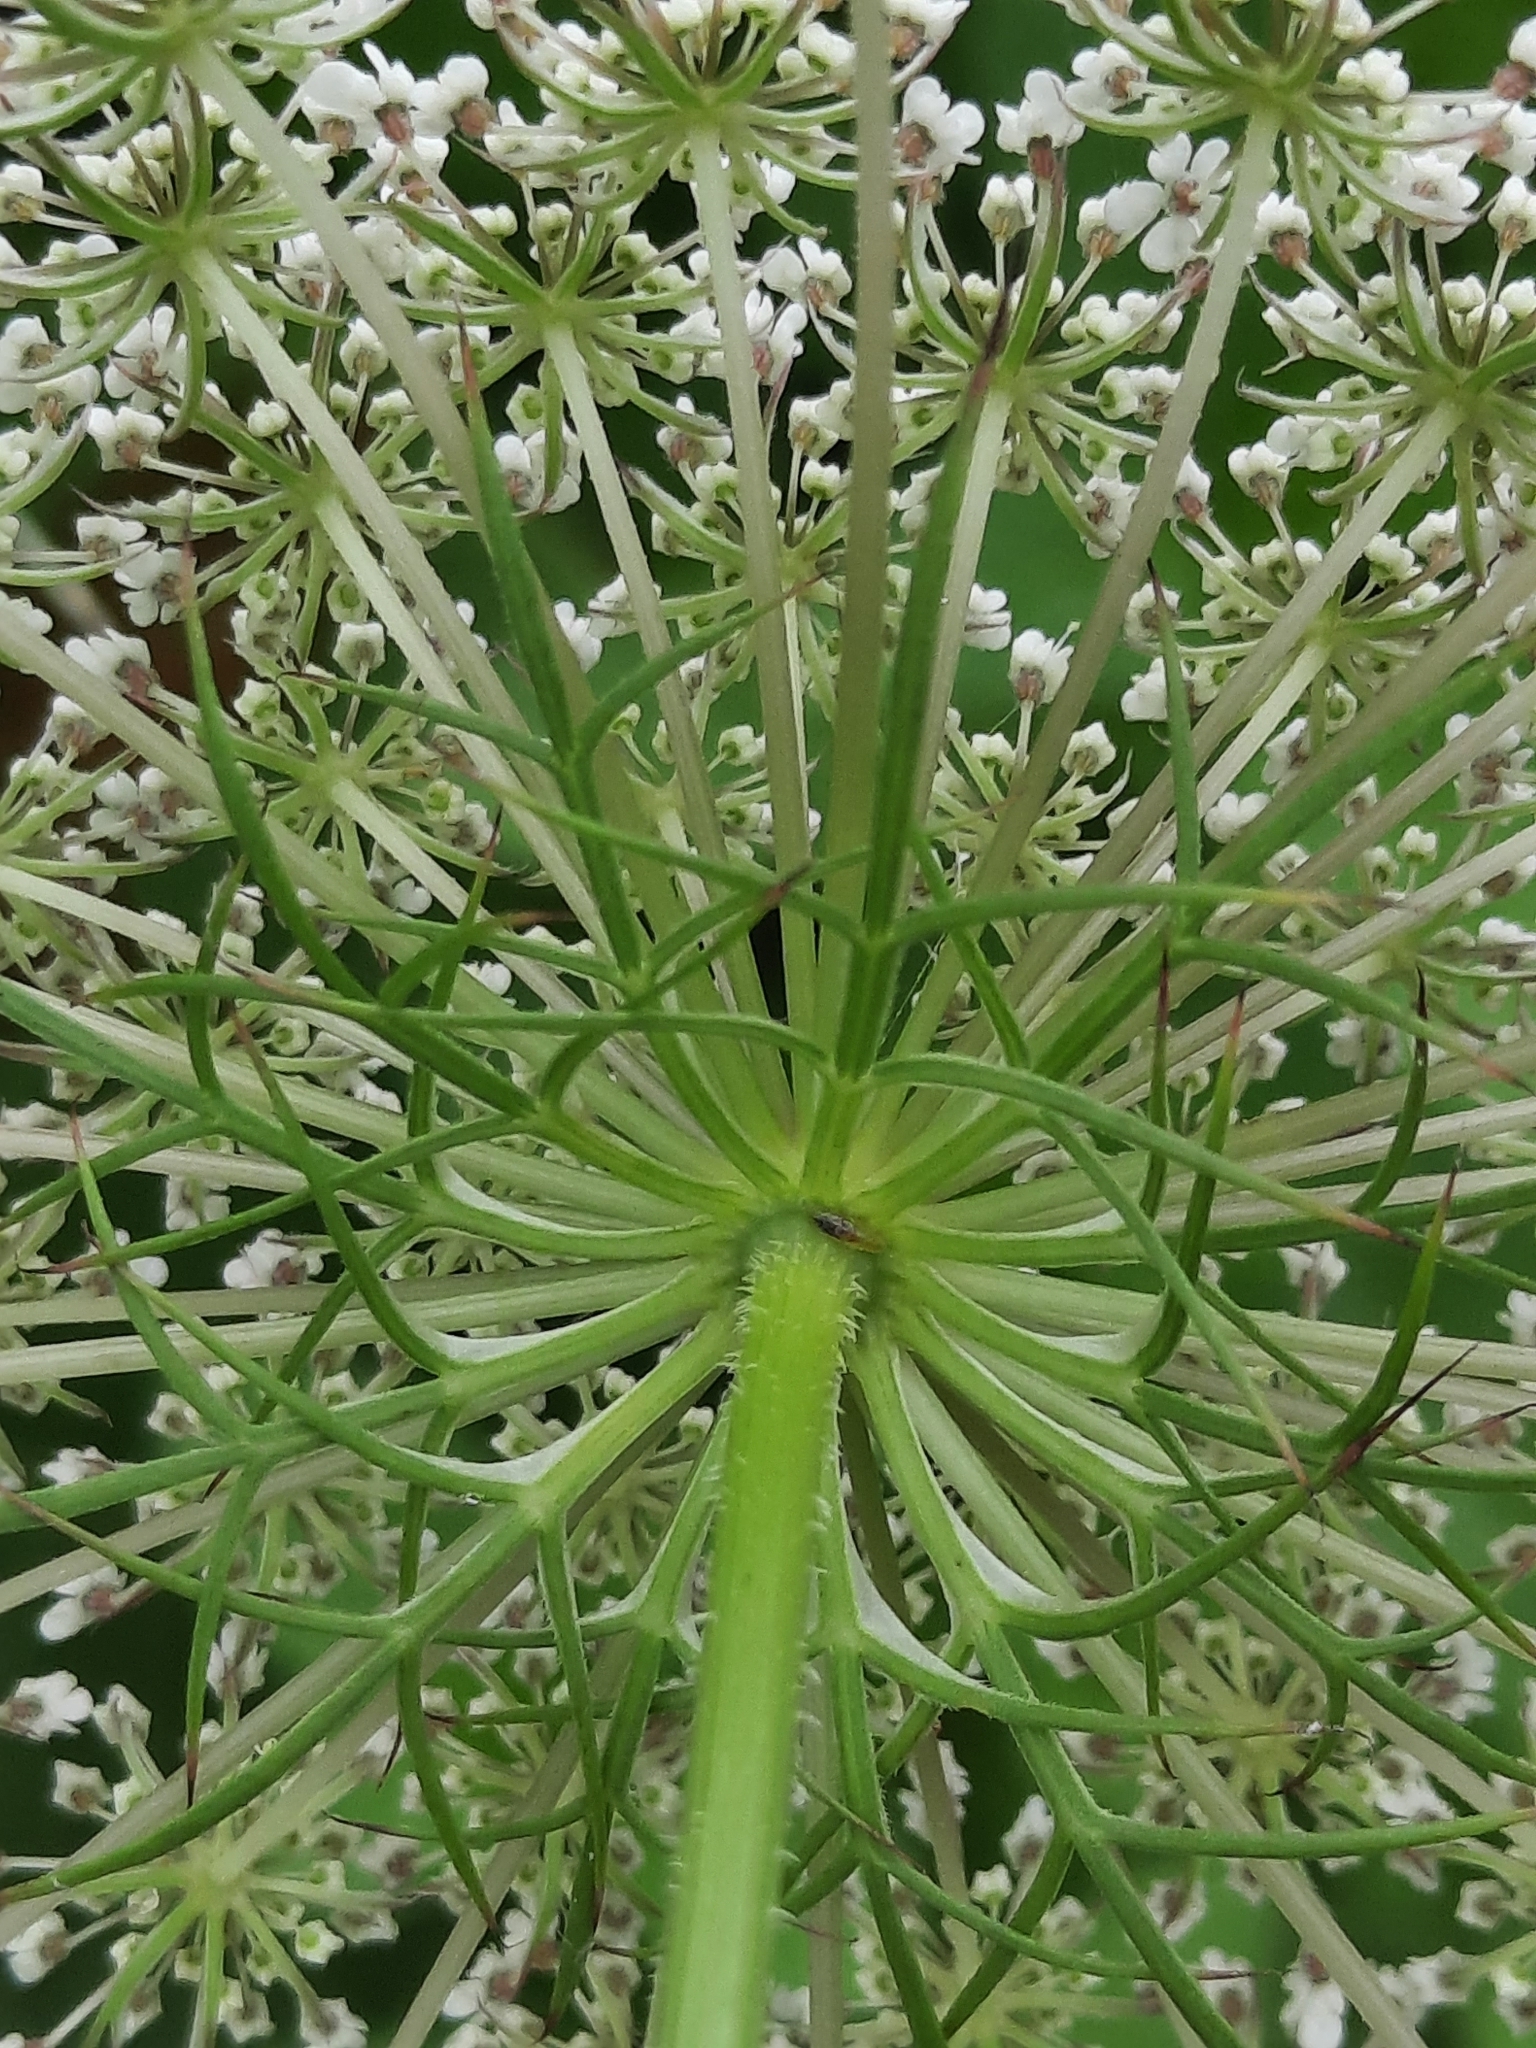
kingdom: Plantae
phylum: Tracheophyta
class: Magnoliopsida
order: Apiales
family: Apiaceae
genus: Daucus
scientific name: Daucus carota
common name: Wild carrot
